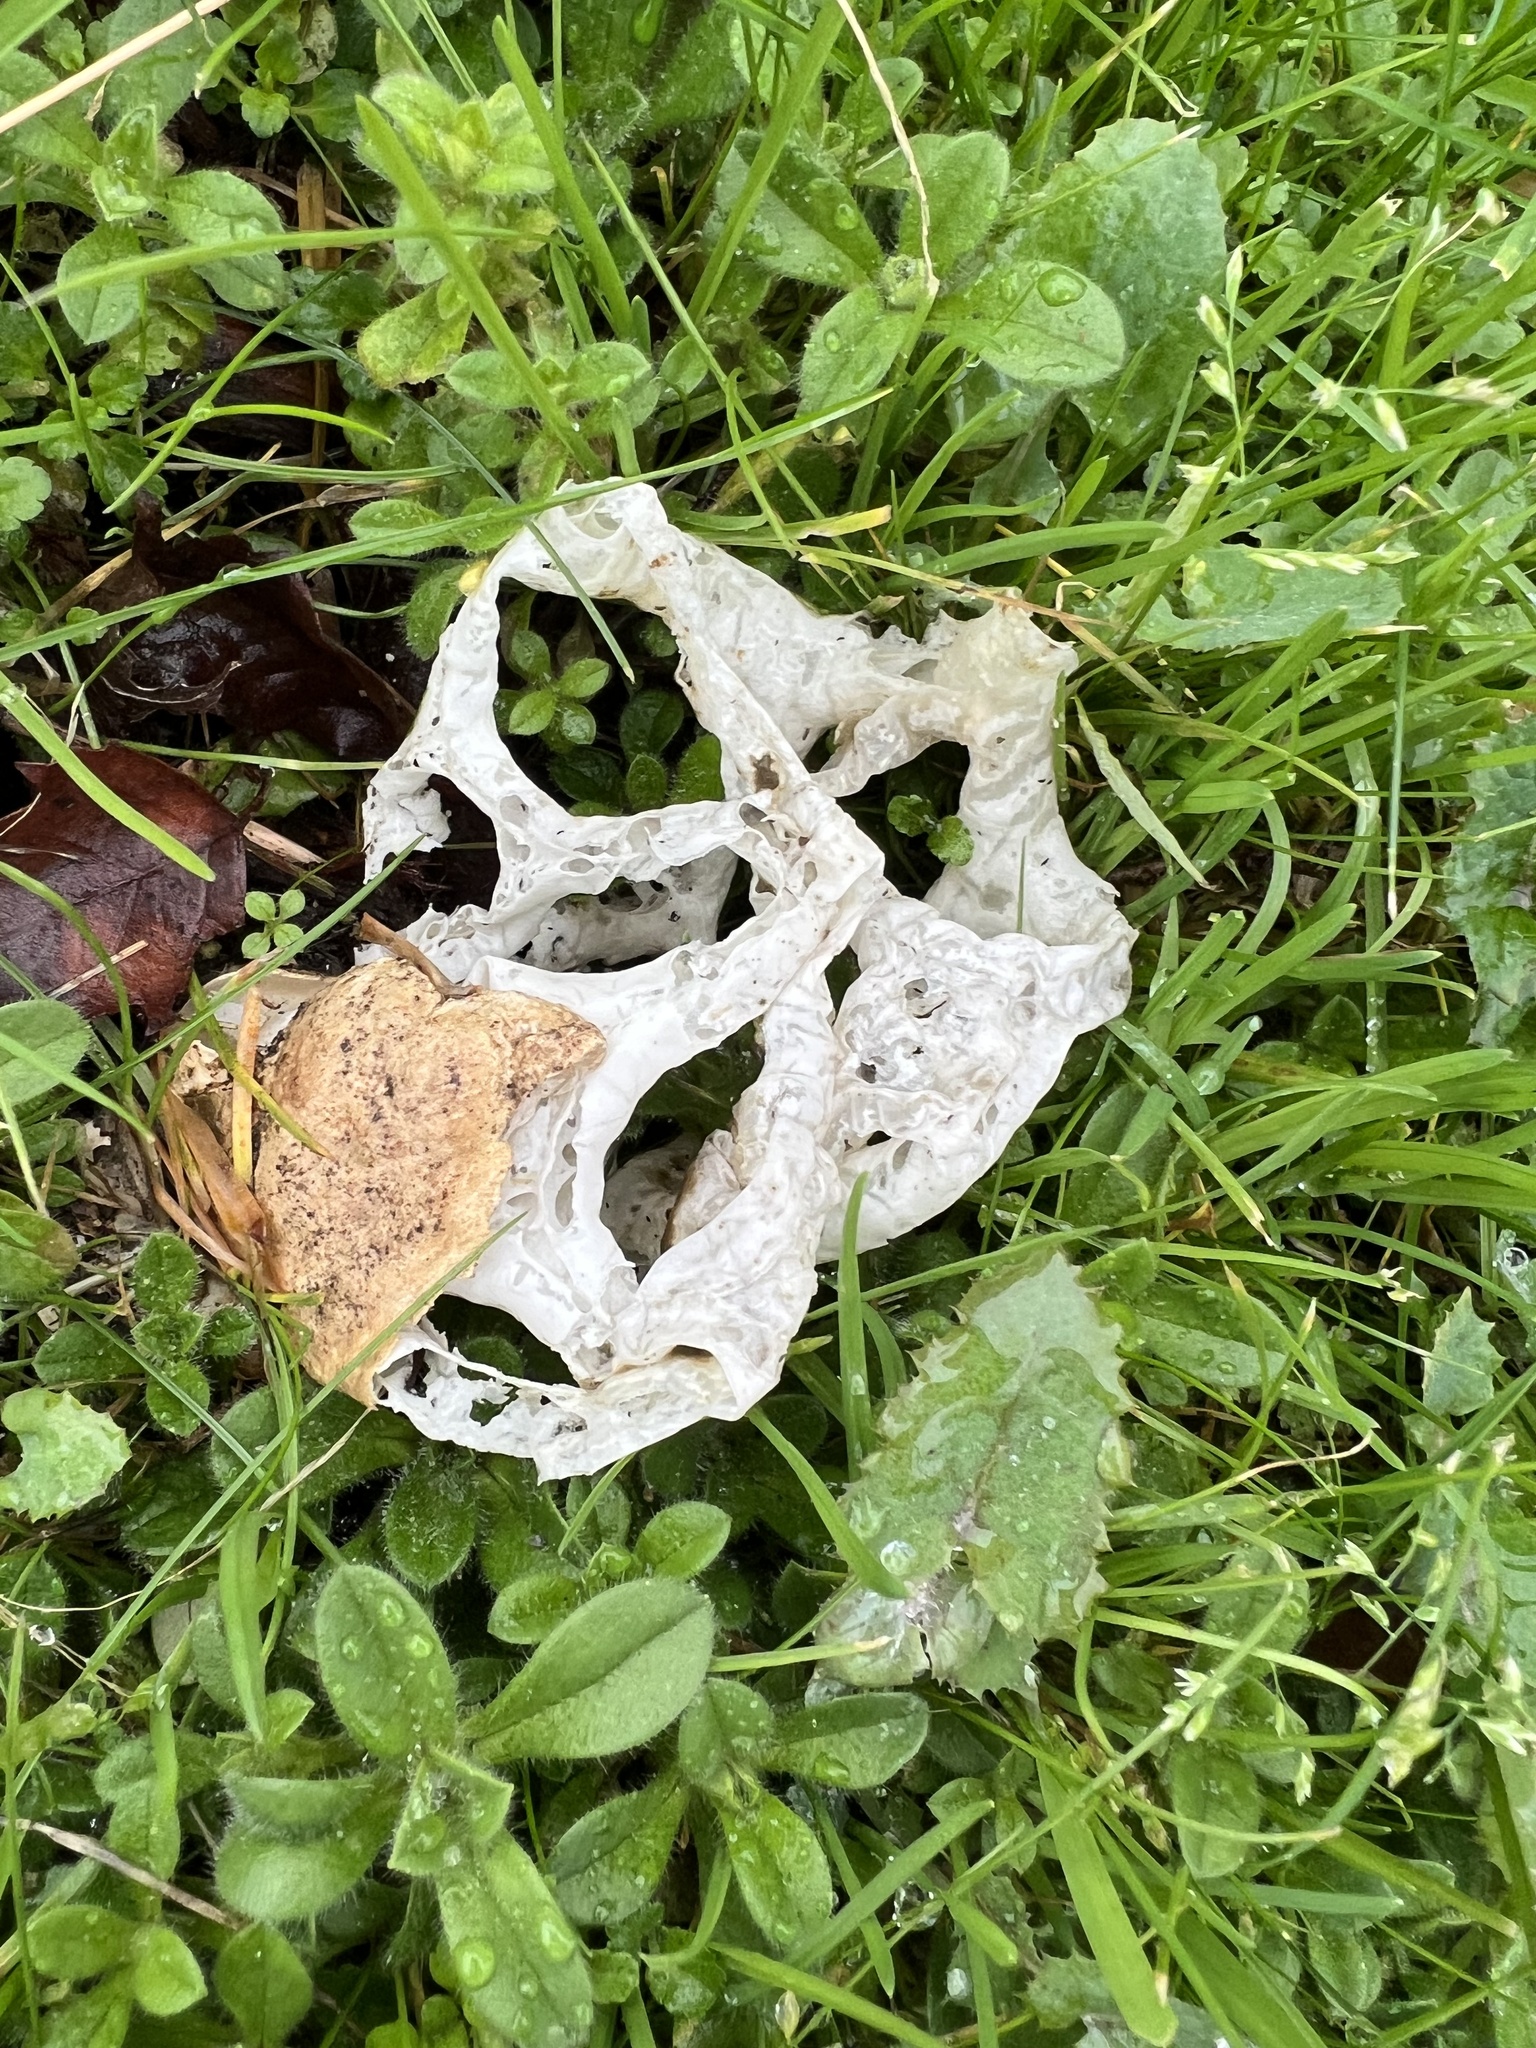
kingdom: Fungi
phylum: Basidiomycota
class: Agaricomycetes
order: Phallales
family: Phallaceae
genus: Ileodictyon
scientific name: Ileodictyon cibarium
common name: Basket fungus
